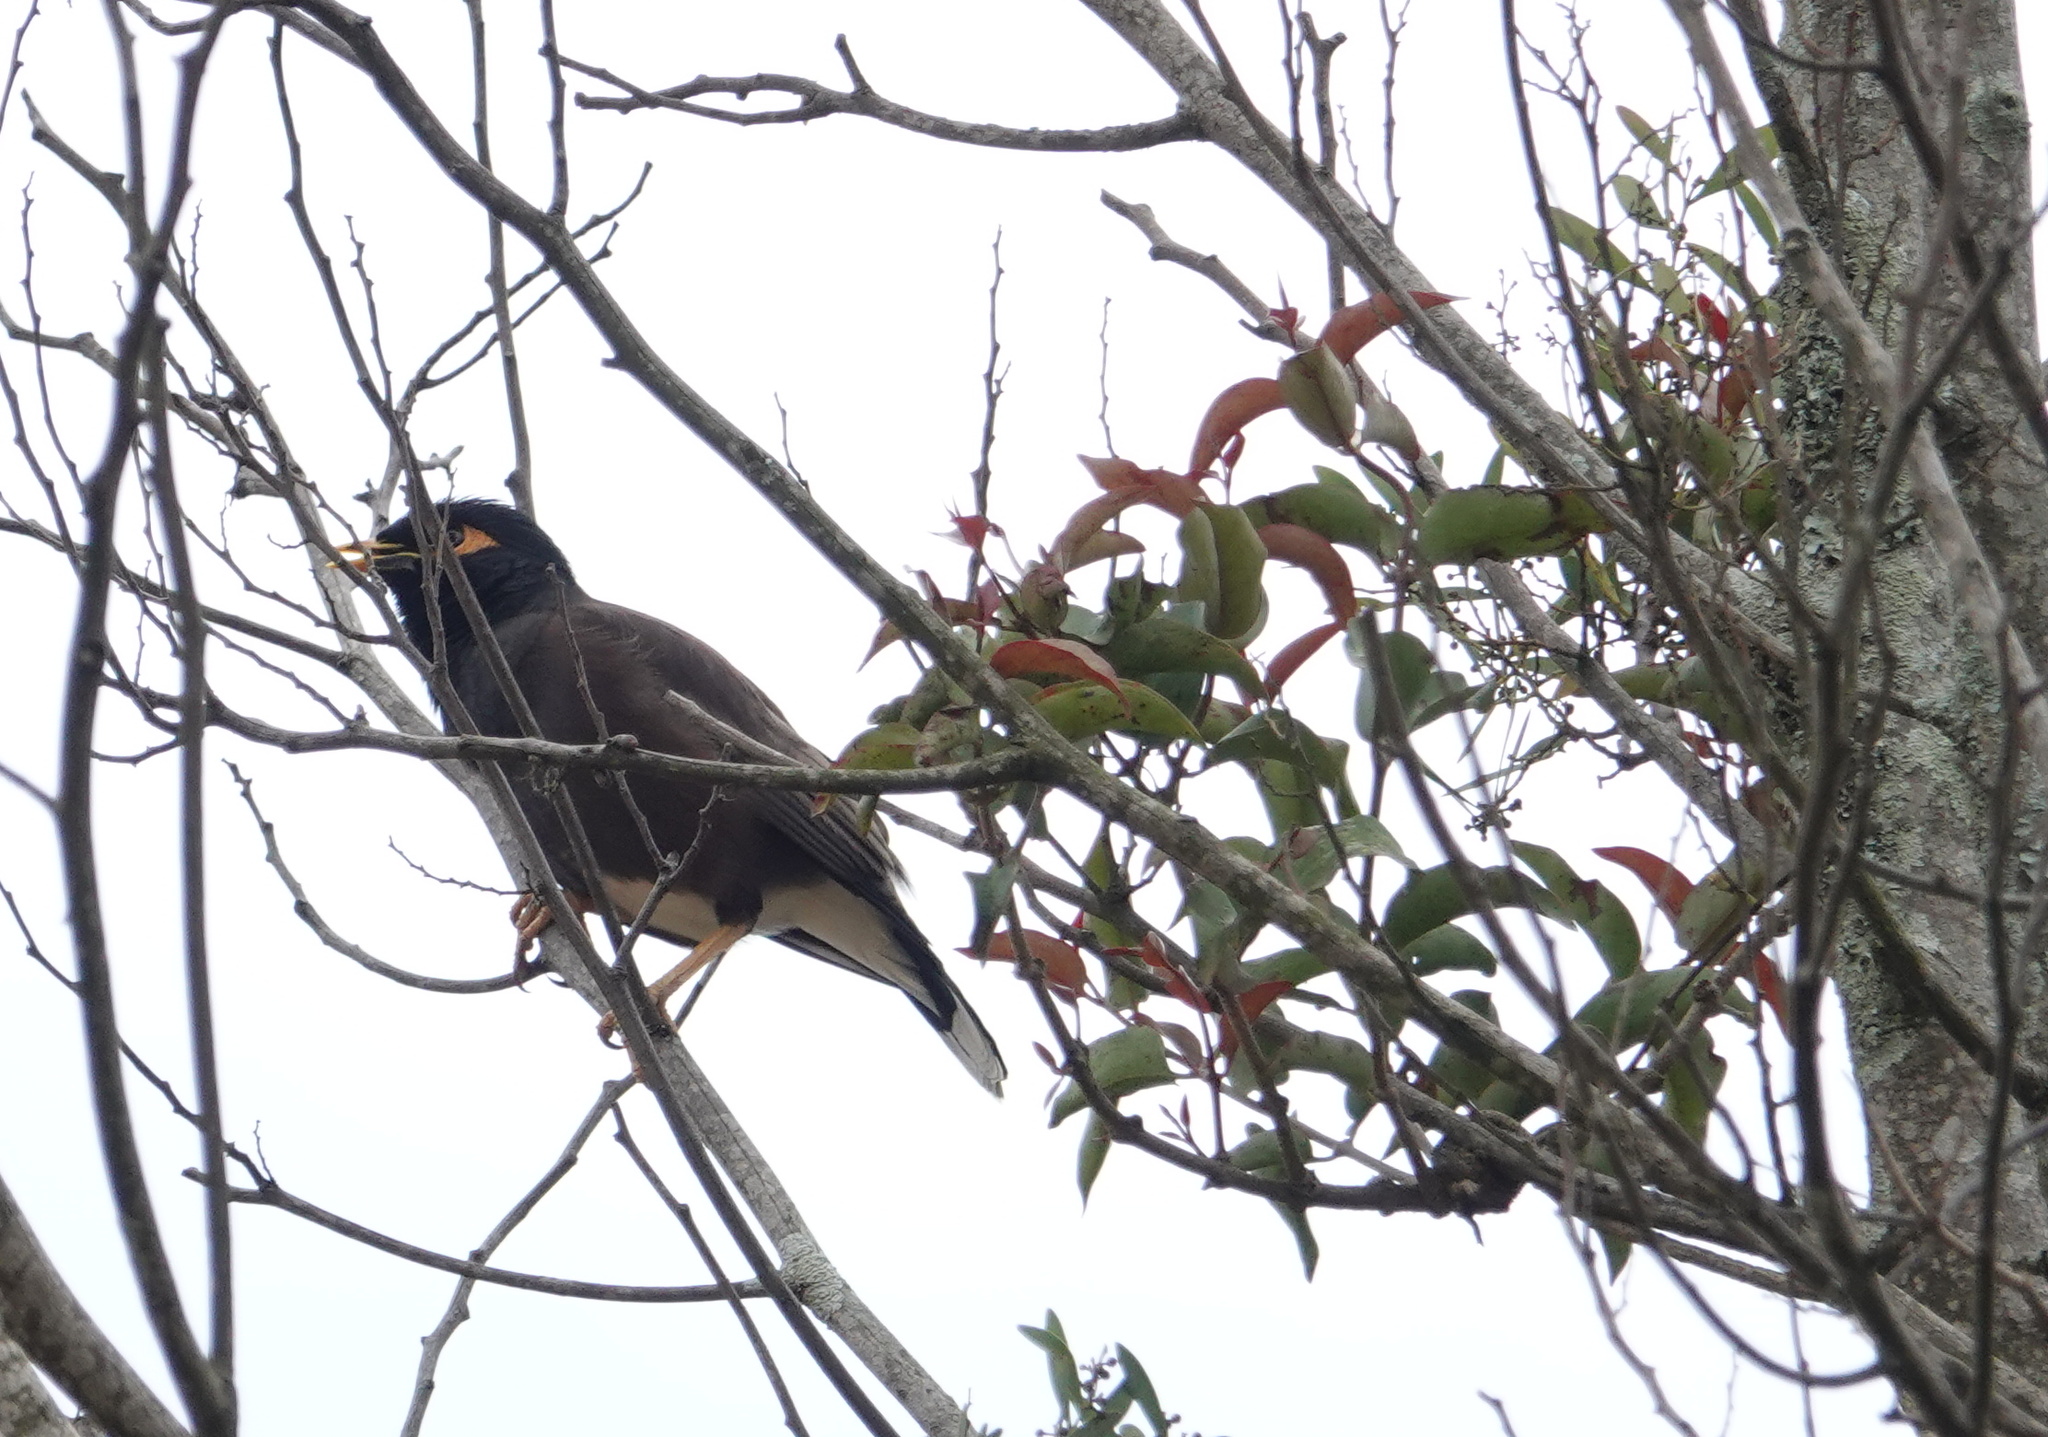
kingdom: Animalia
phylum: Chordata
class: Aves
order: Passeriformes
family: Sturnidae
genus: Acridotheres
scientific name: Acridotheres tristis
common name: Common myna
